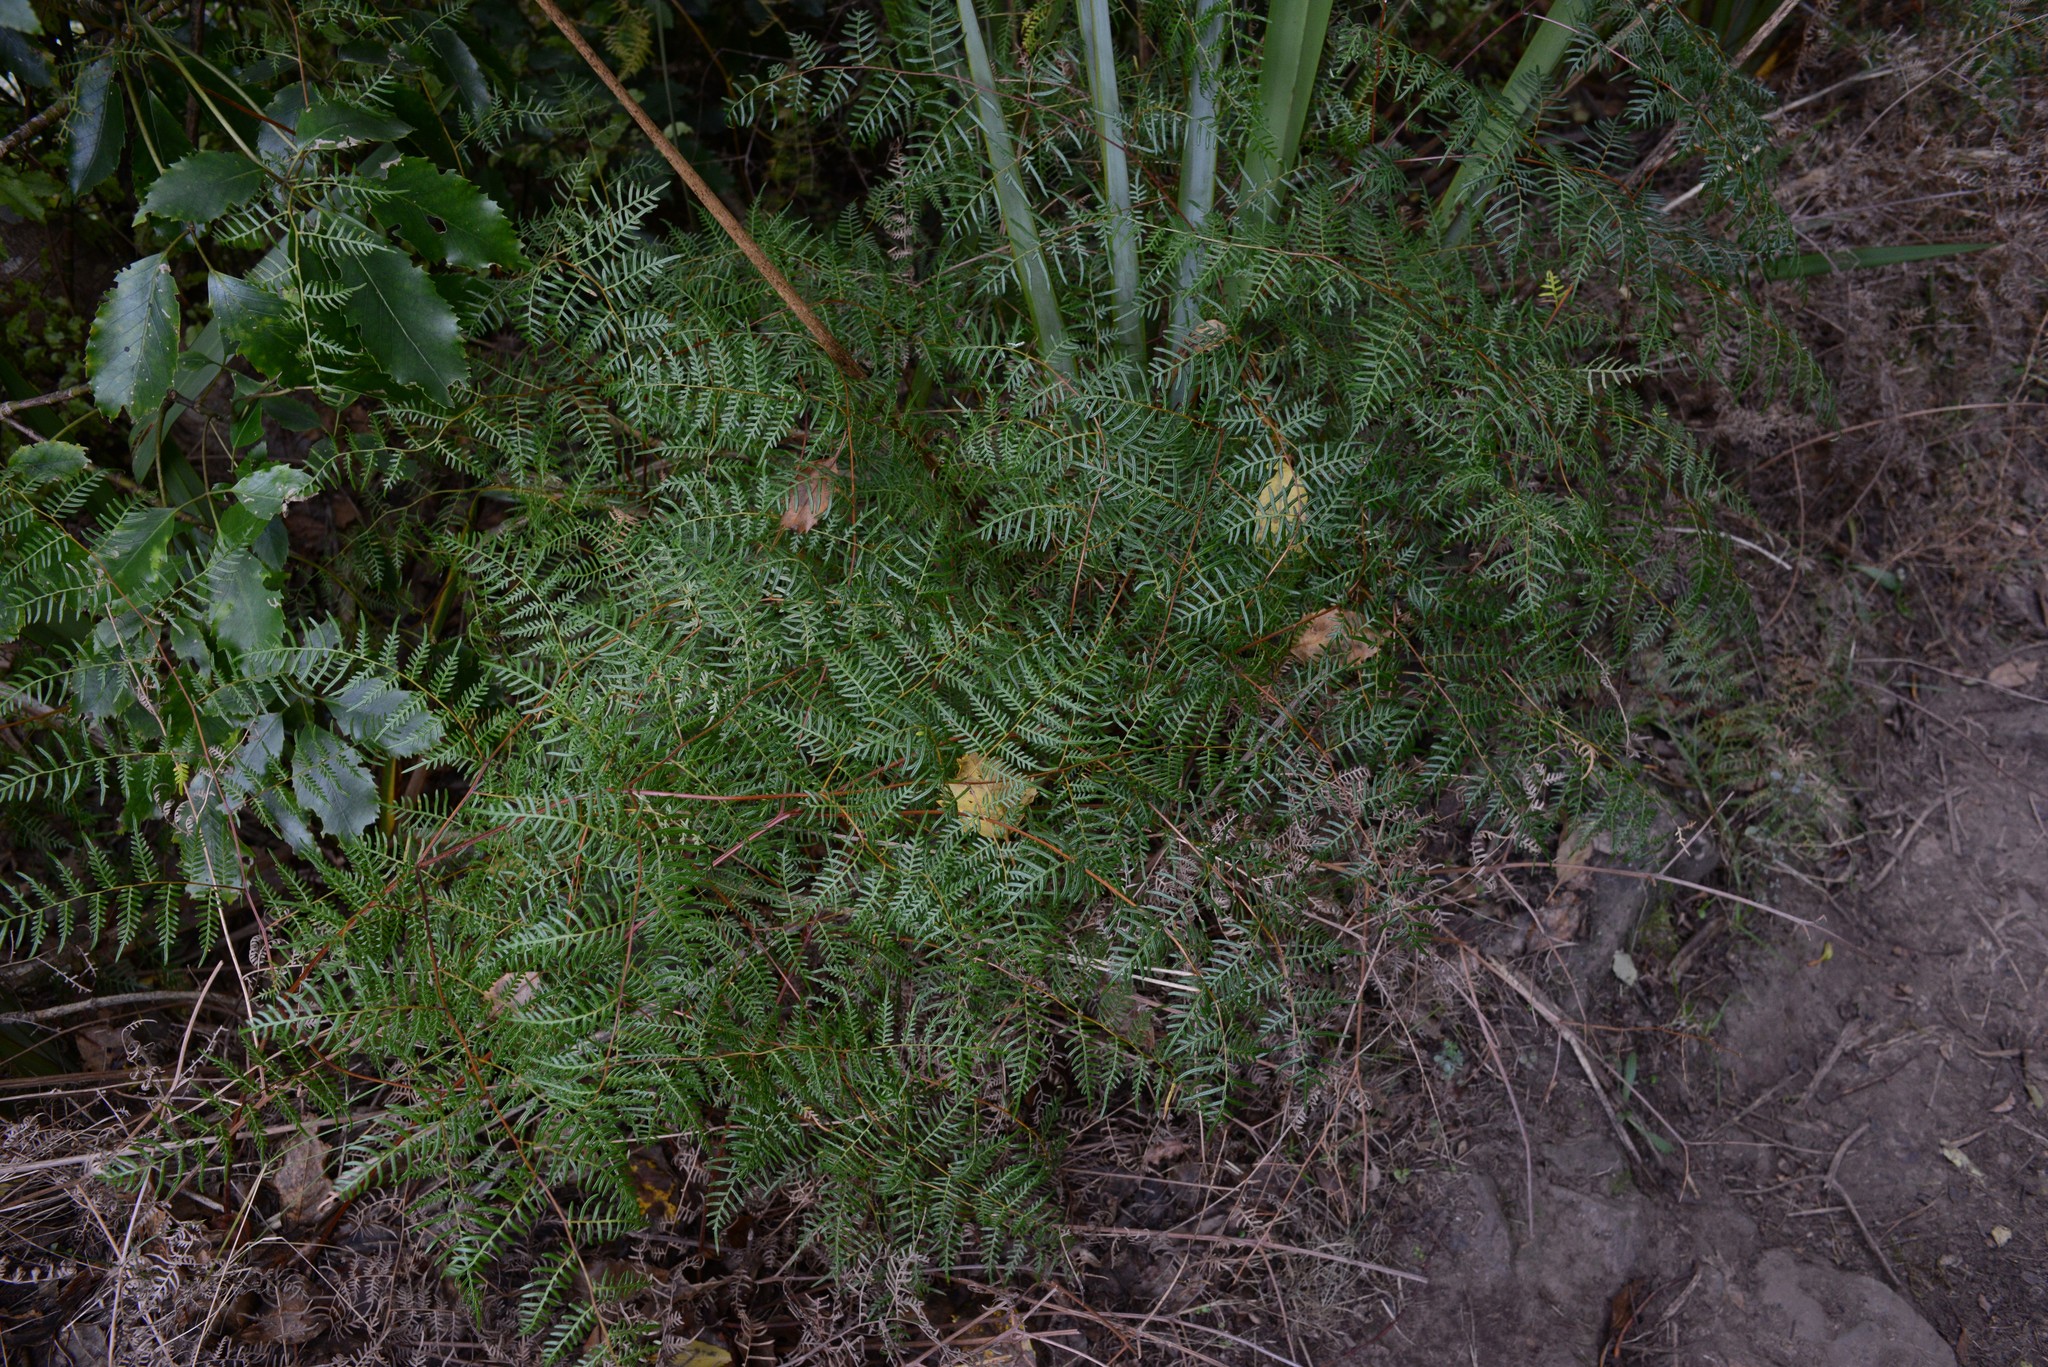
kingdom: Plantae
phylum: Tracheophyta
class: Polypodiopsida
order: Polypodiales
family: Dennstaedtiaceae
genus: Pteridium
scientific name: Pteridium esculentum
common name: Bracken fern
